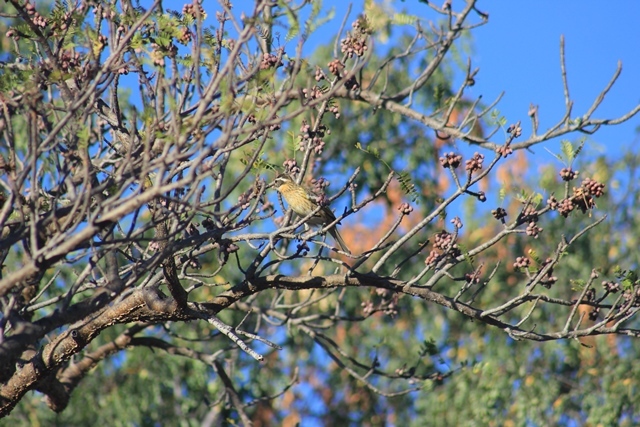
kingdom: Animalia
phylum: Chordata
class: Aves
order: Passeriformes
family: Cardinalidae
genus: Pheucticus
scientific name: Pheucticus melanocephalus
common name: Black-headed grosbeak
